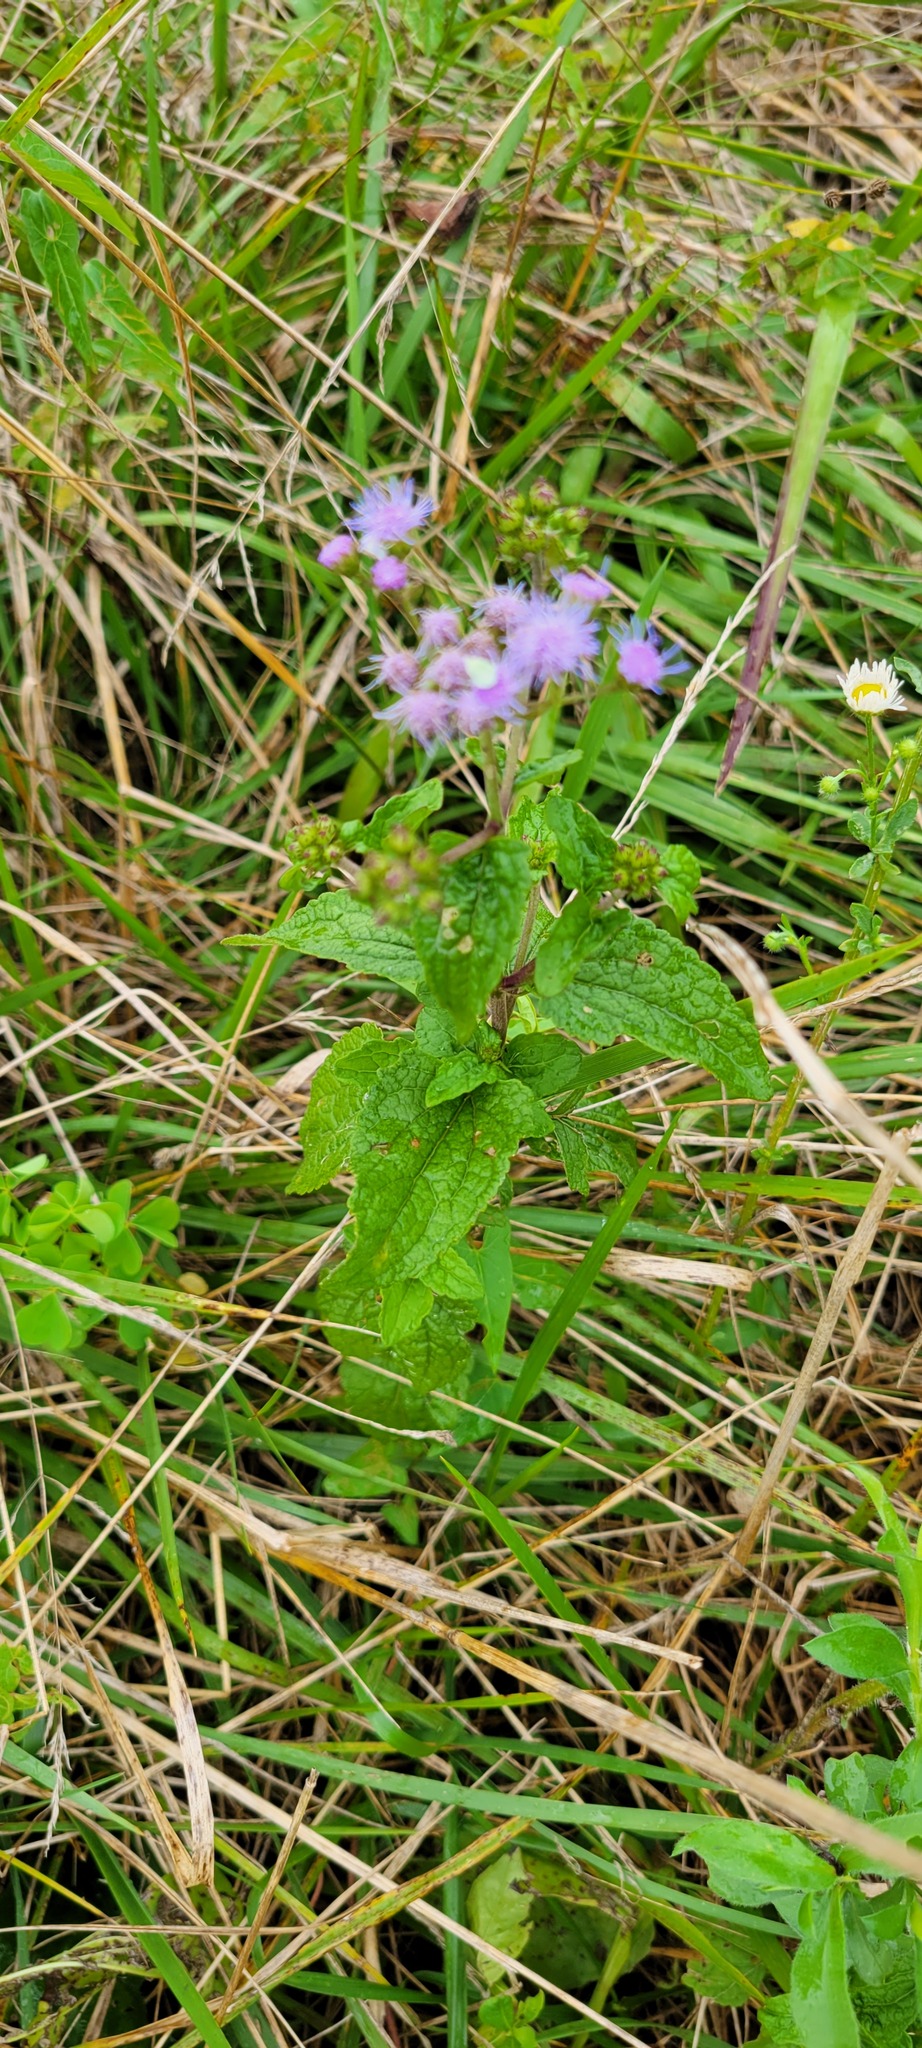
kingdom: Plantae
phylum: Tracheophyta
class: Magnoliopsida
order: Asterales
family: Asteraceae
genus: Conoclinium
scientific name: Conoclinium coelestinum
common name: Blue mistflower
